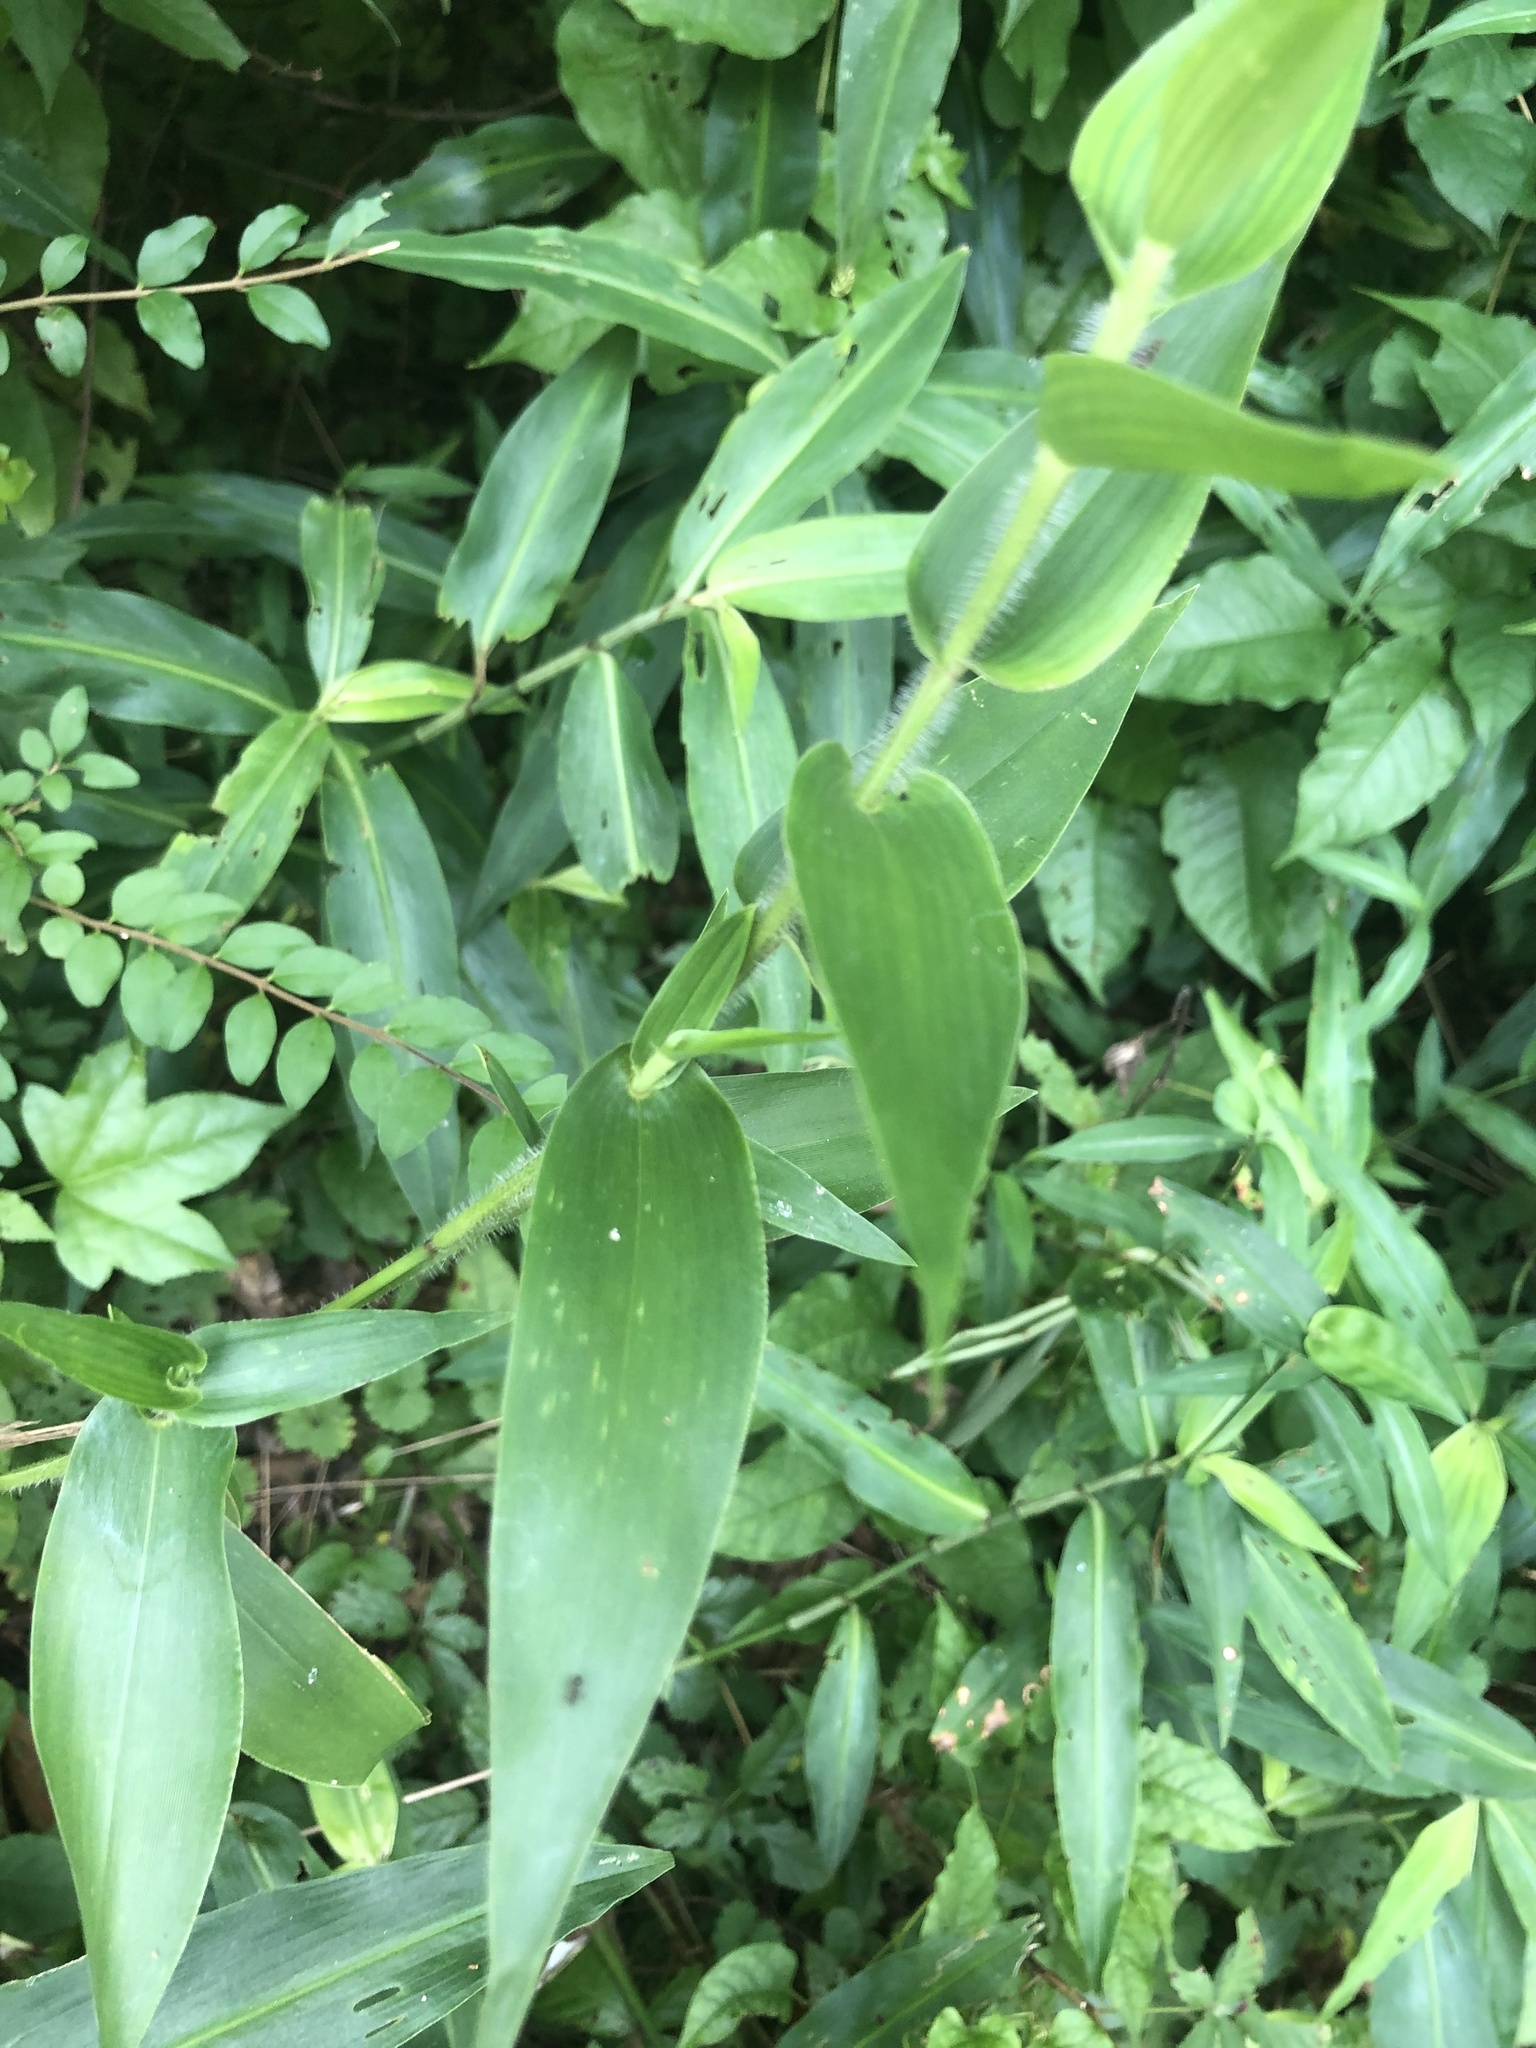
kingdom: Plantae
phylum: Tracheophyta
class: Liliopsida
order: Poales
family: Poaceae
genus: Dichanthelium
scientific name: Dichanthelium clandestinum
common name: Deer-tongue grass
